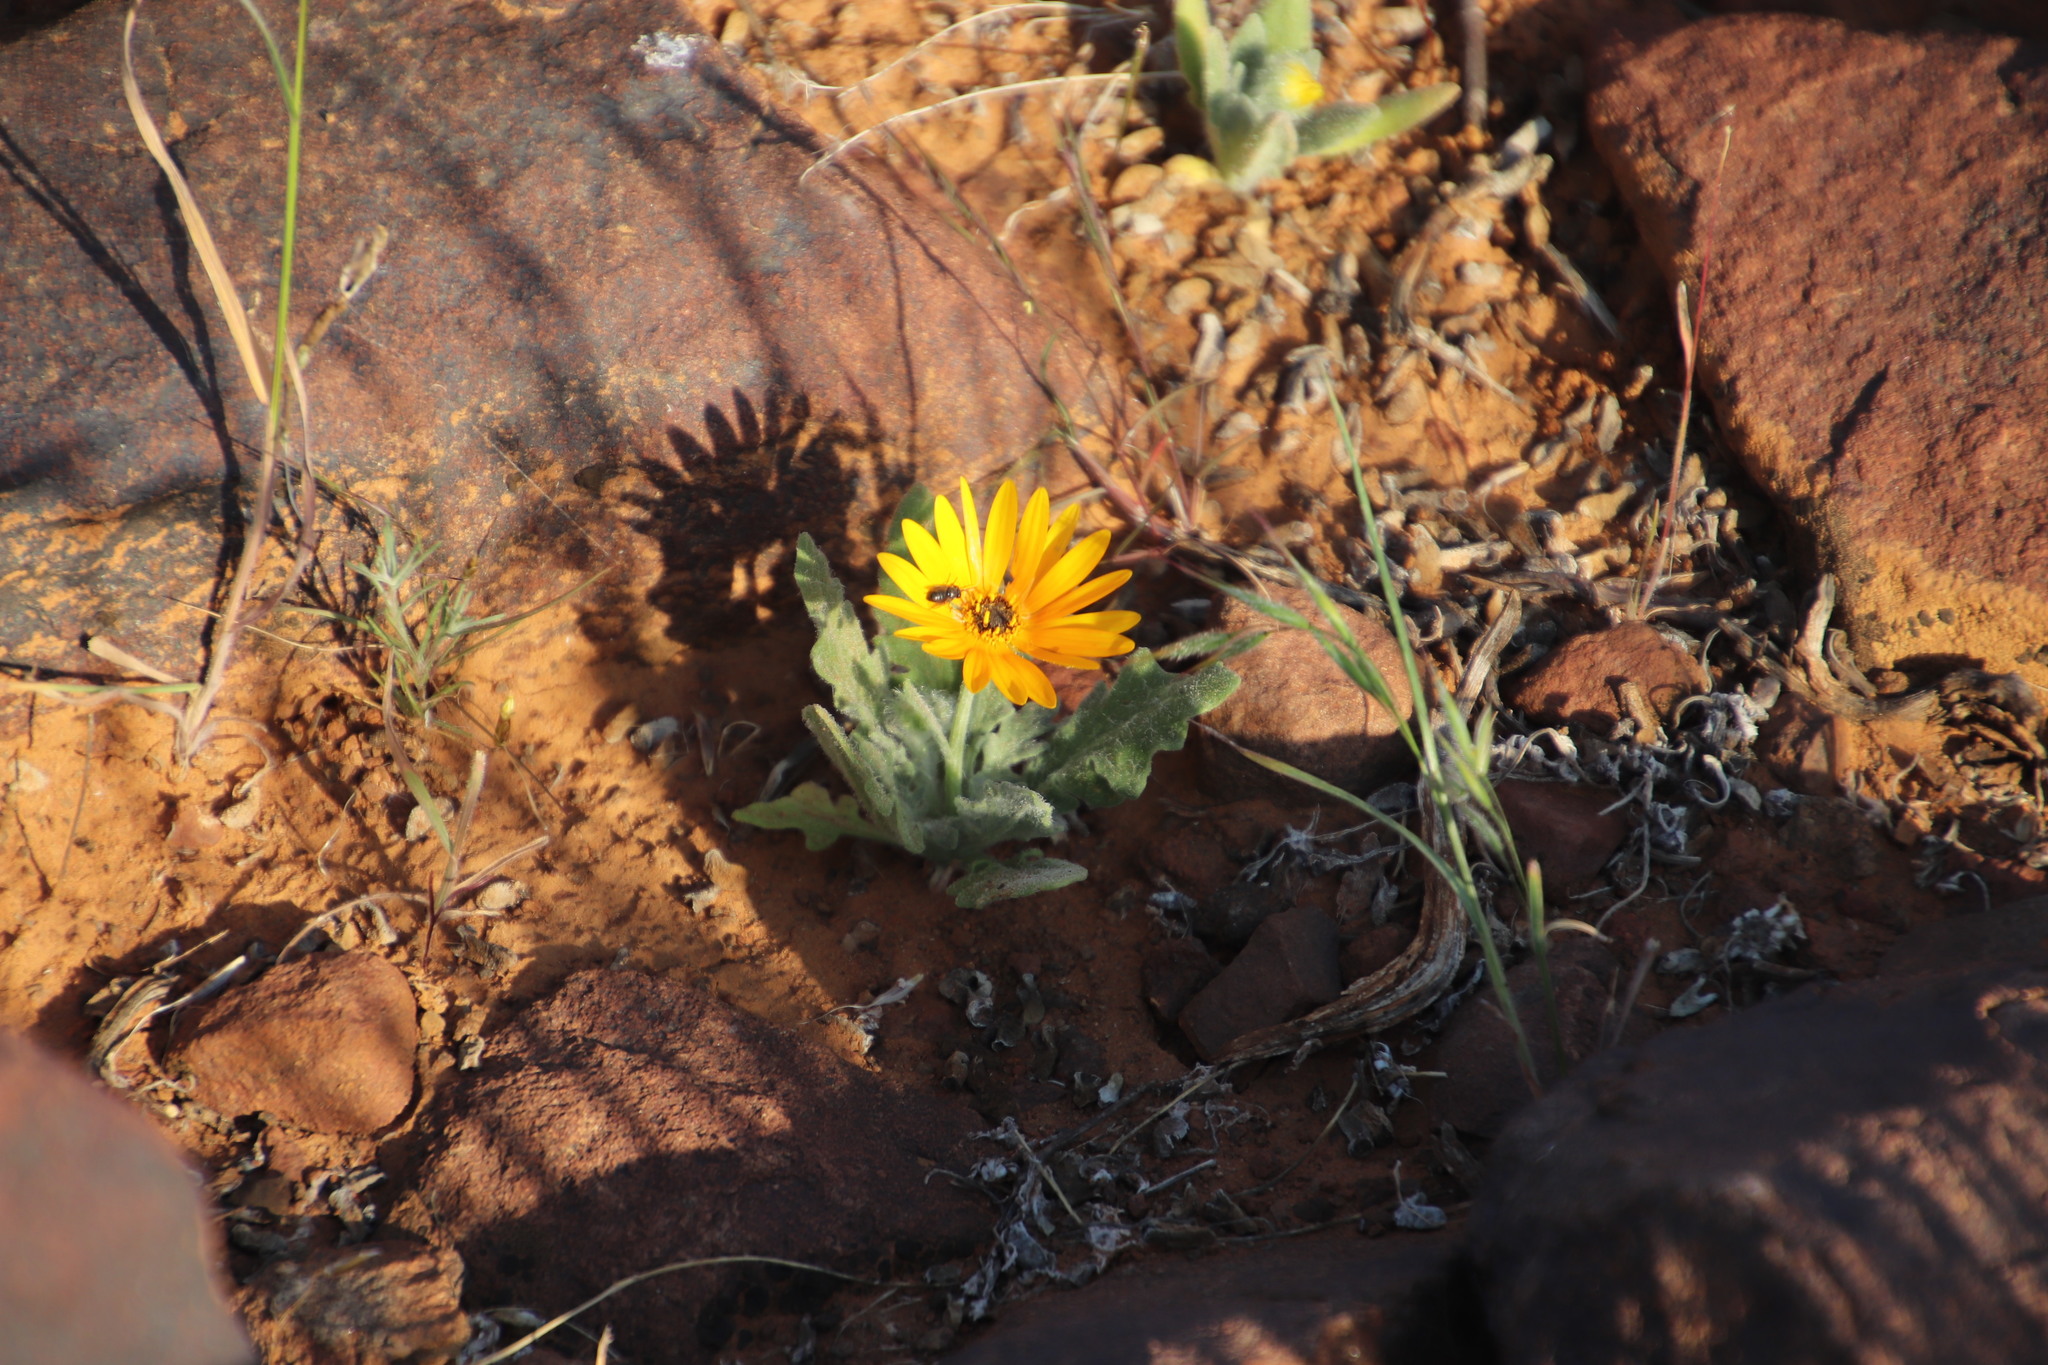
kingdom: Animalia
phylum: Arthropoda
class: Insecta
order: Diptera
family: Bombyliidae
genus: Megapalpus
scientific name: Megapalpus capensis
